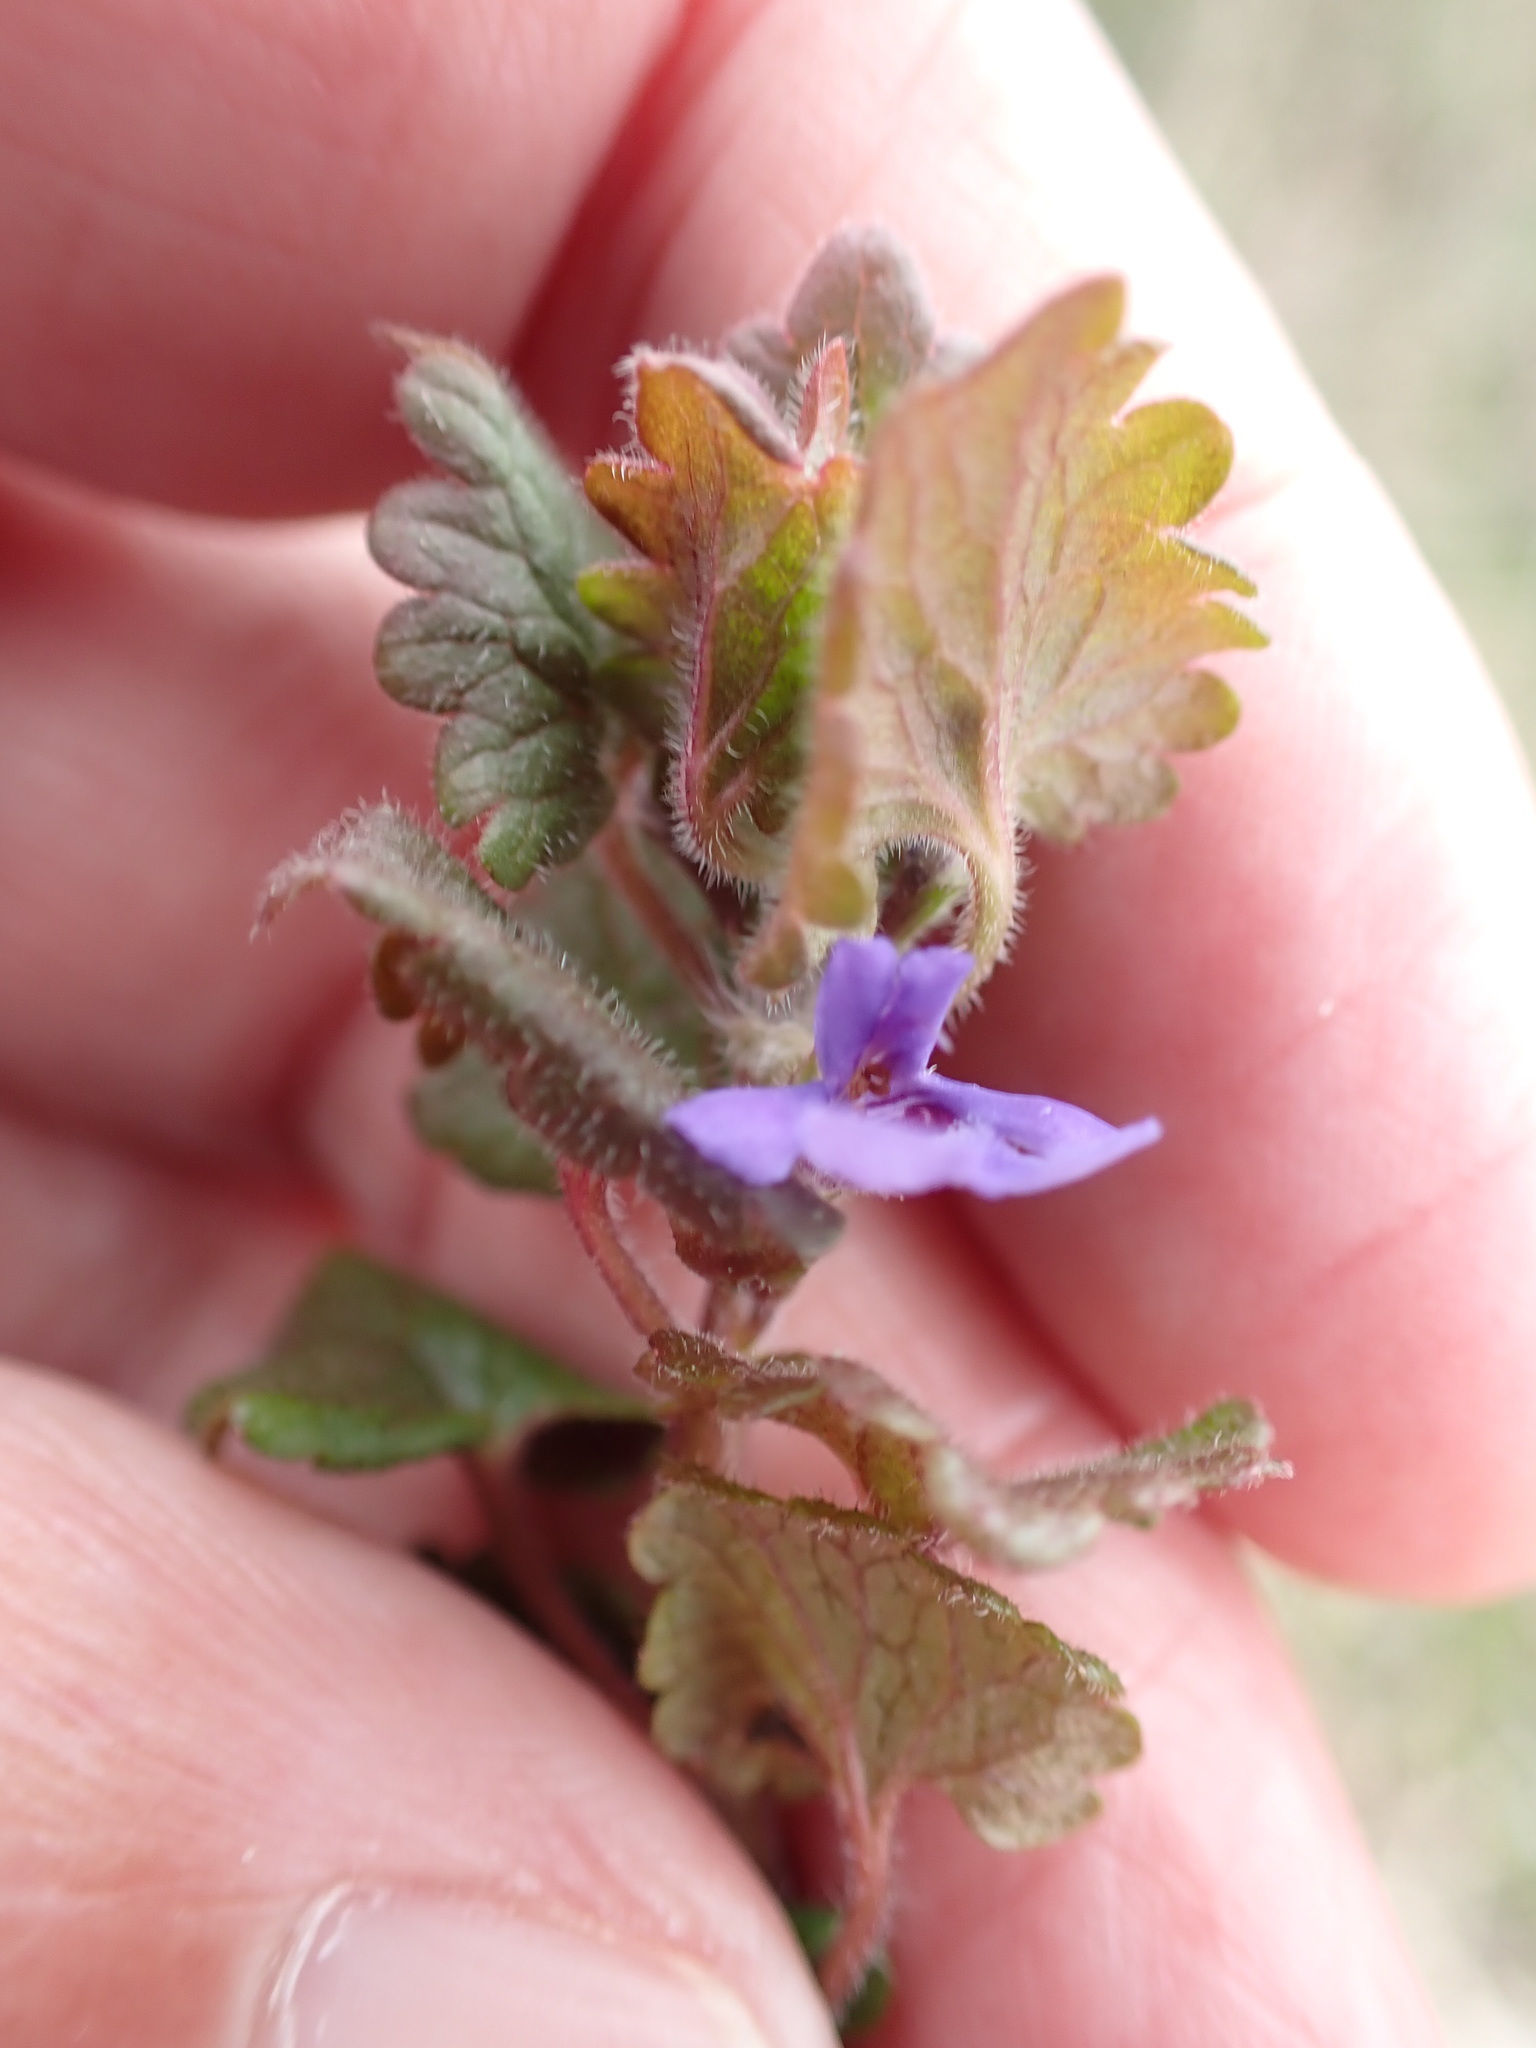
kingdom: Plantae
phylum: Tracheophyta
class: Magnoliopsida
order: Lamiales
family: Lamiaceae
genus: Glechoma
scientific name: Glechoma hederacea
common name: Ground ivy
